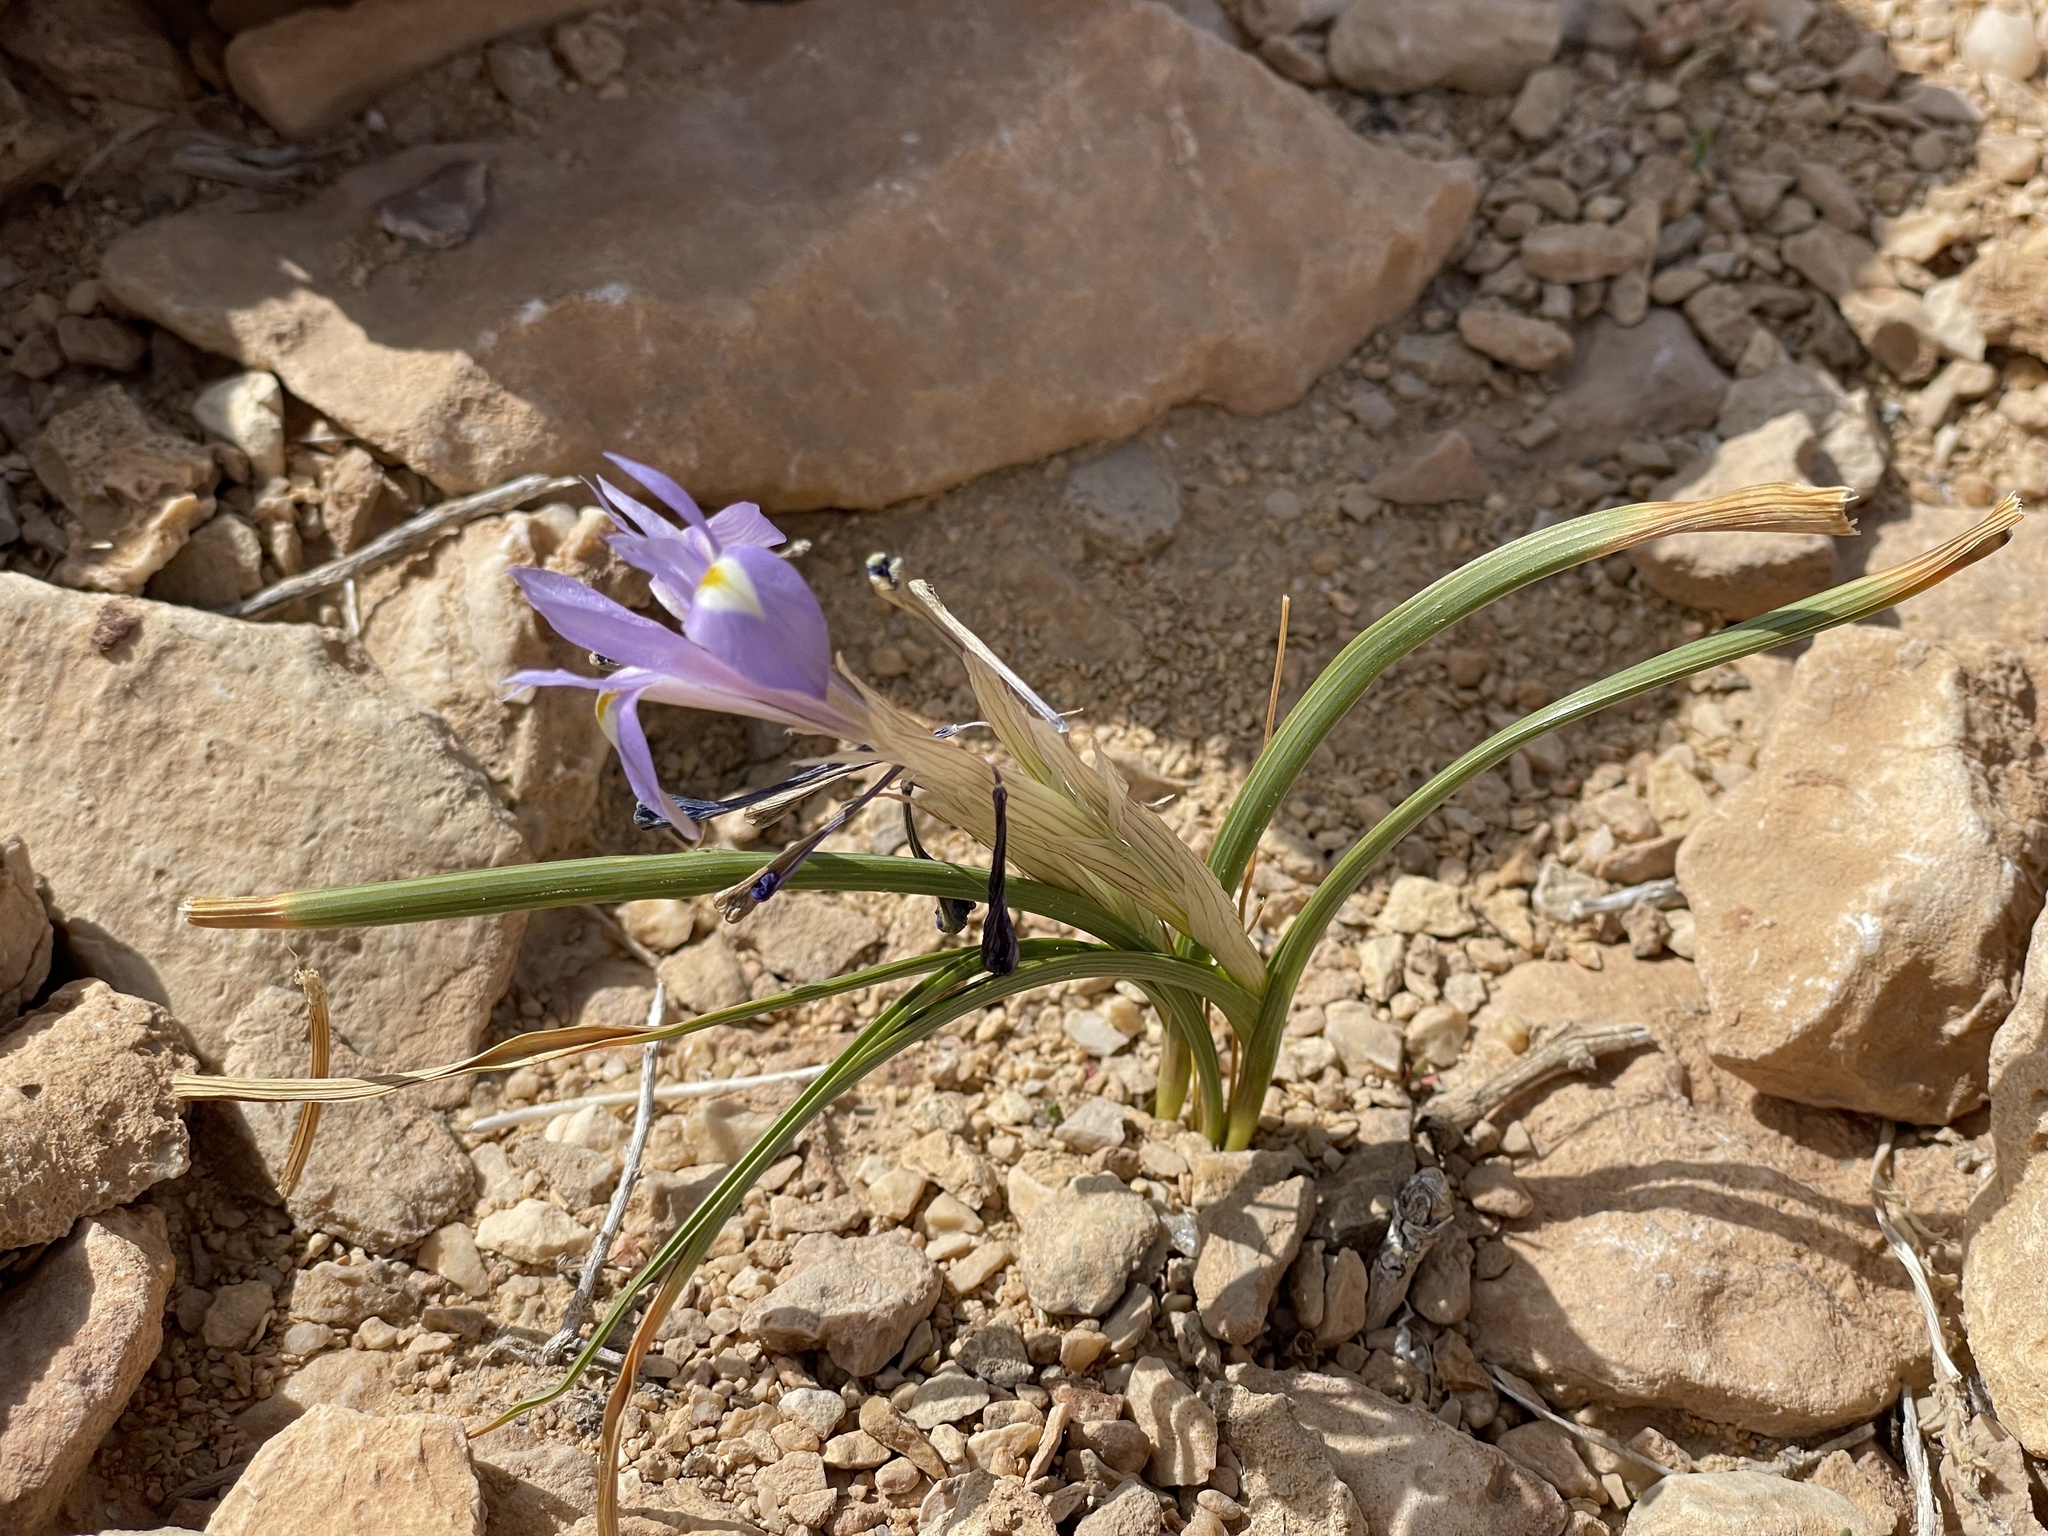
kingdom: Plantae
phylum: Tracheophyta
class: Liliopsida
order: Asparagales
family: Iridaceae
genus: Moraea
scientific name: Moraea sisyrinchium
